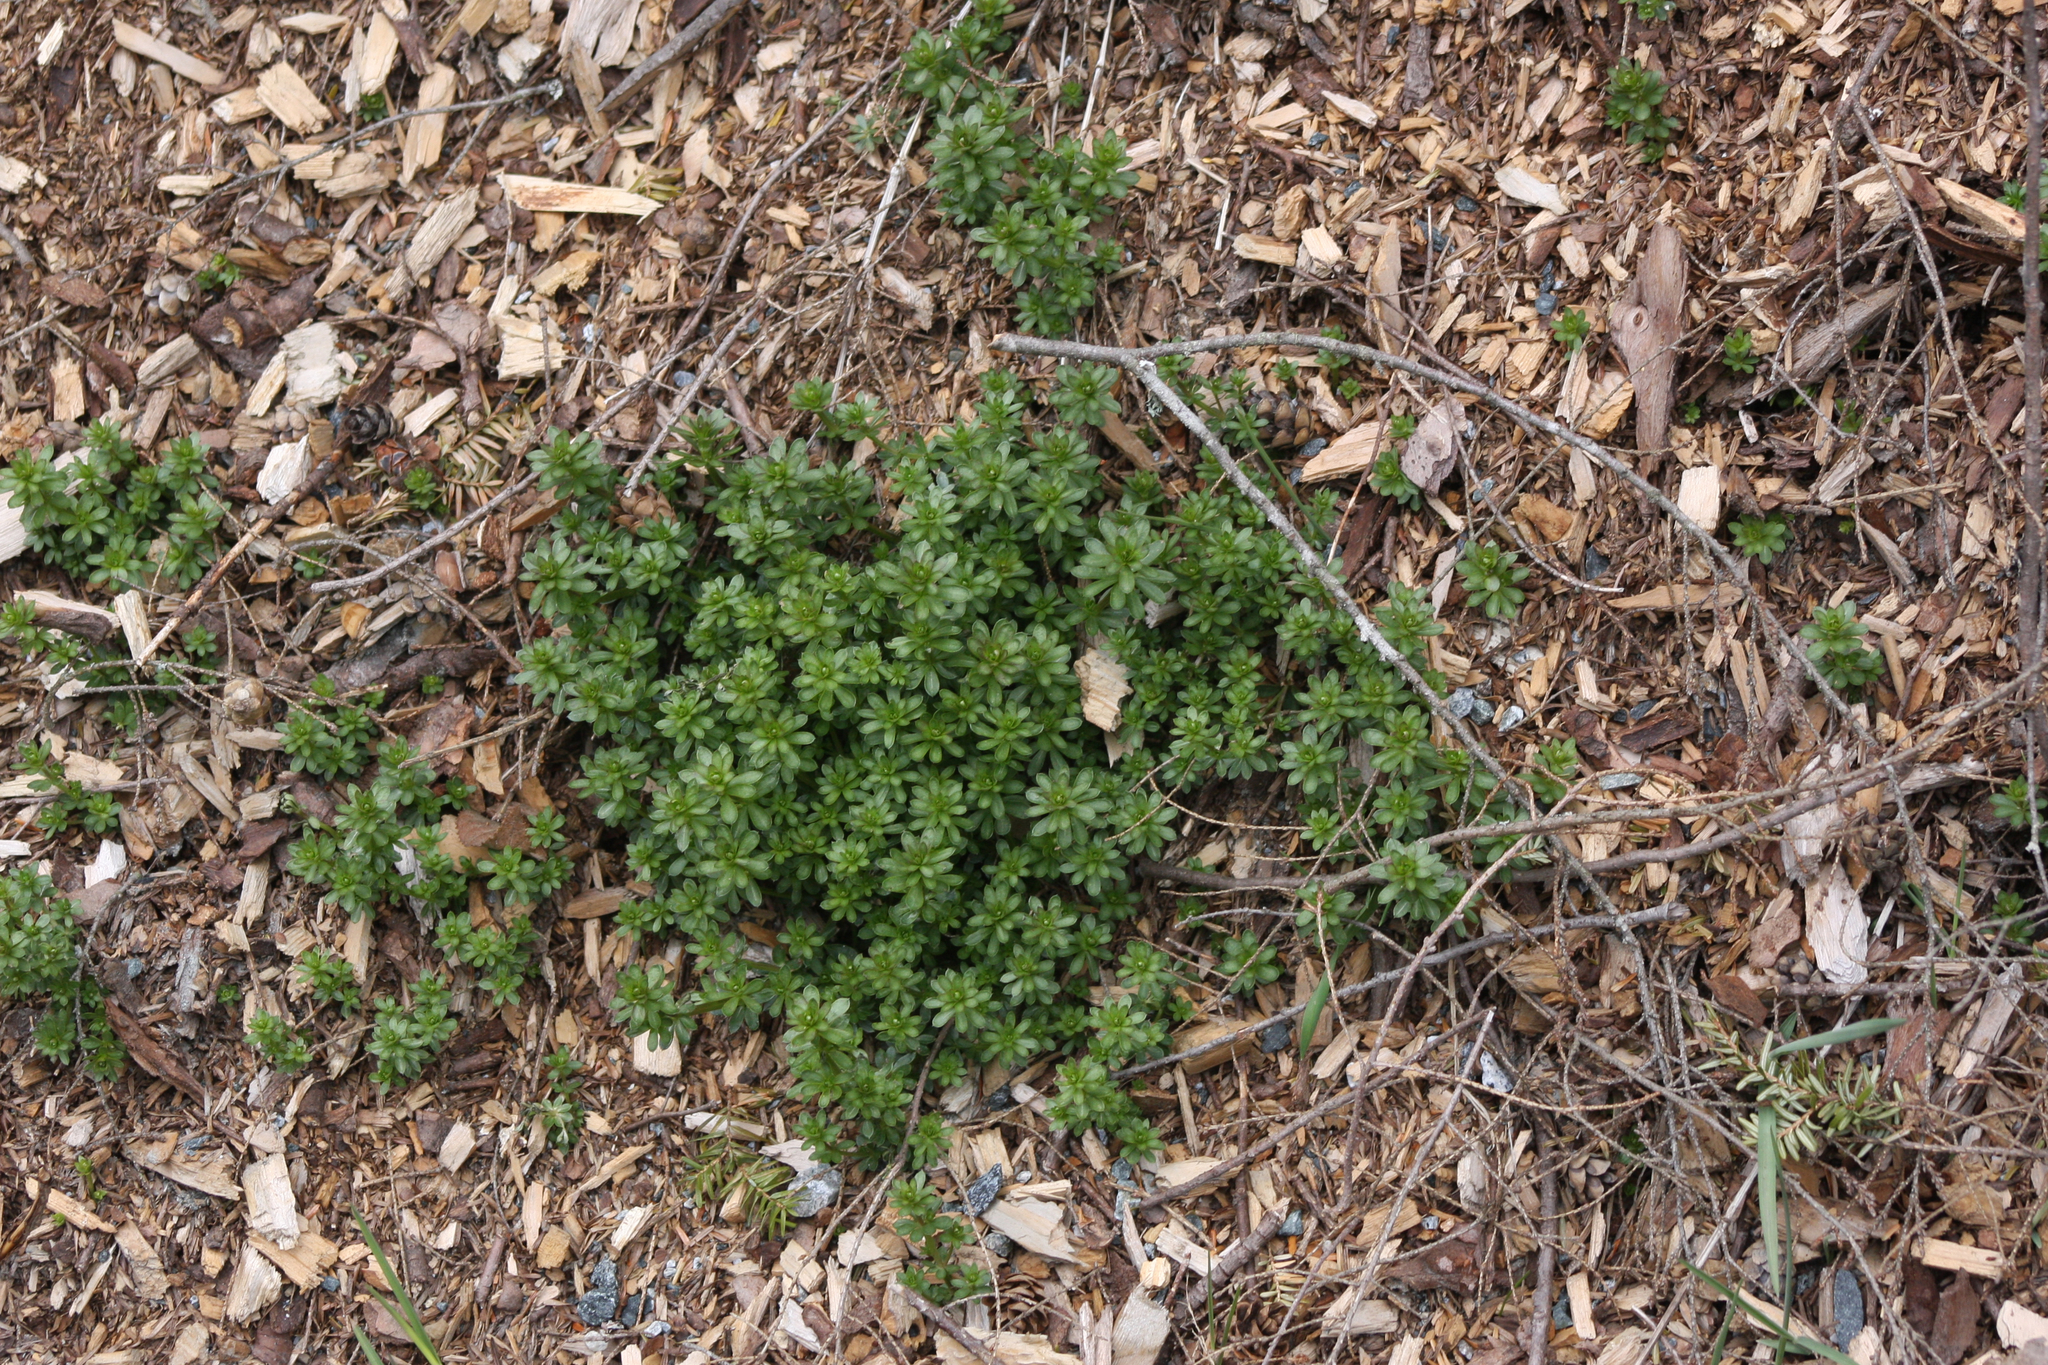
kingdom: Plantae
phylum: Tracheophyta
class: Magnoliopsida
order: Gentianales
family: Rubiaceae
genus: Galium
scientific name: Galium mollugo
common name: Hedge bedstraw
